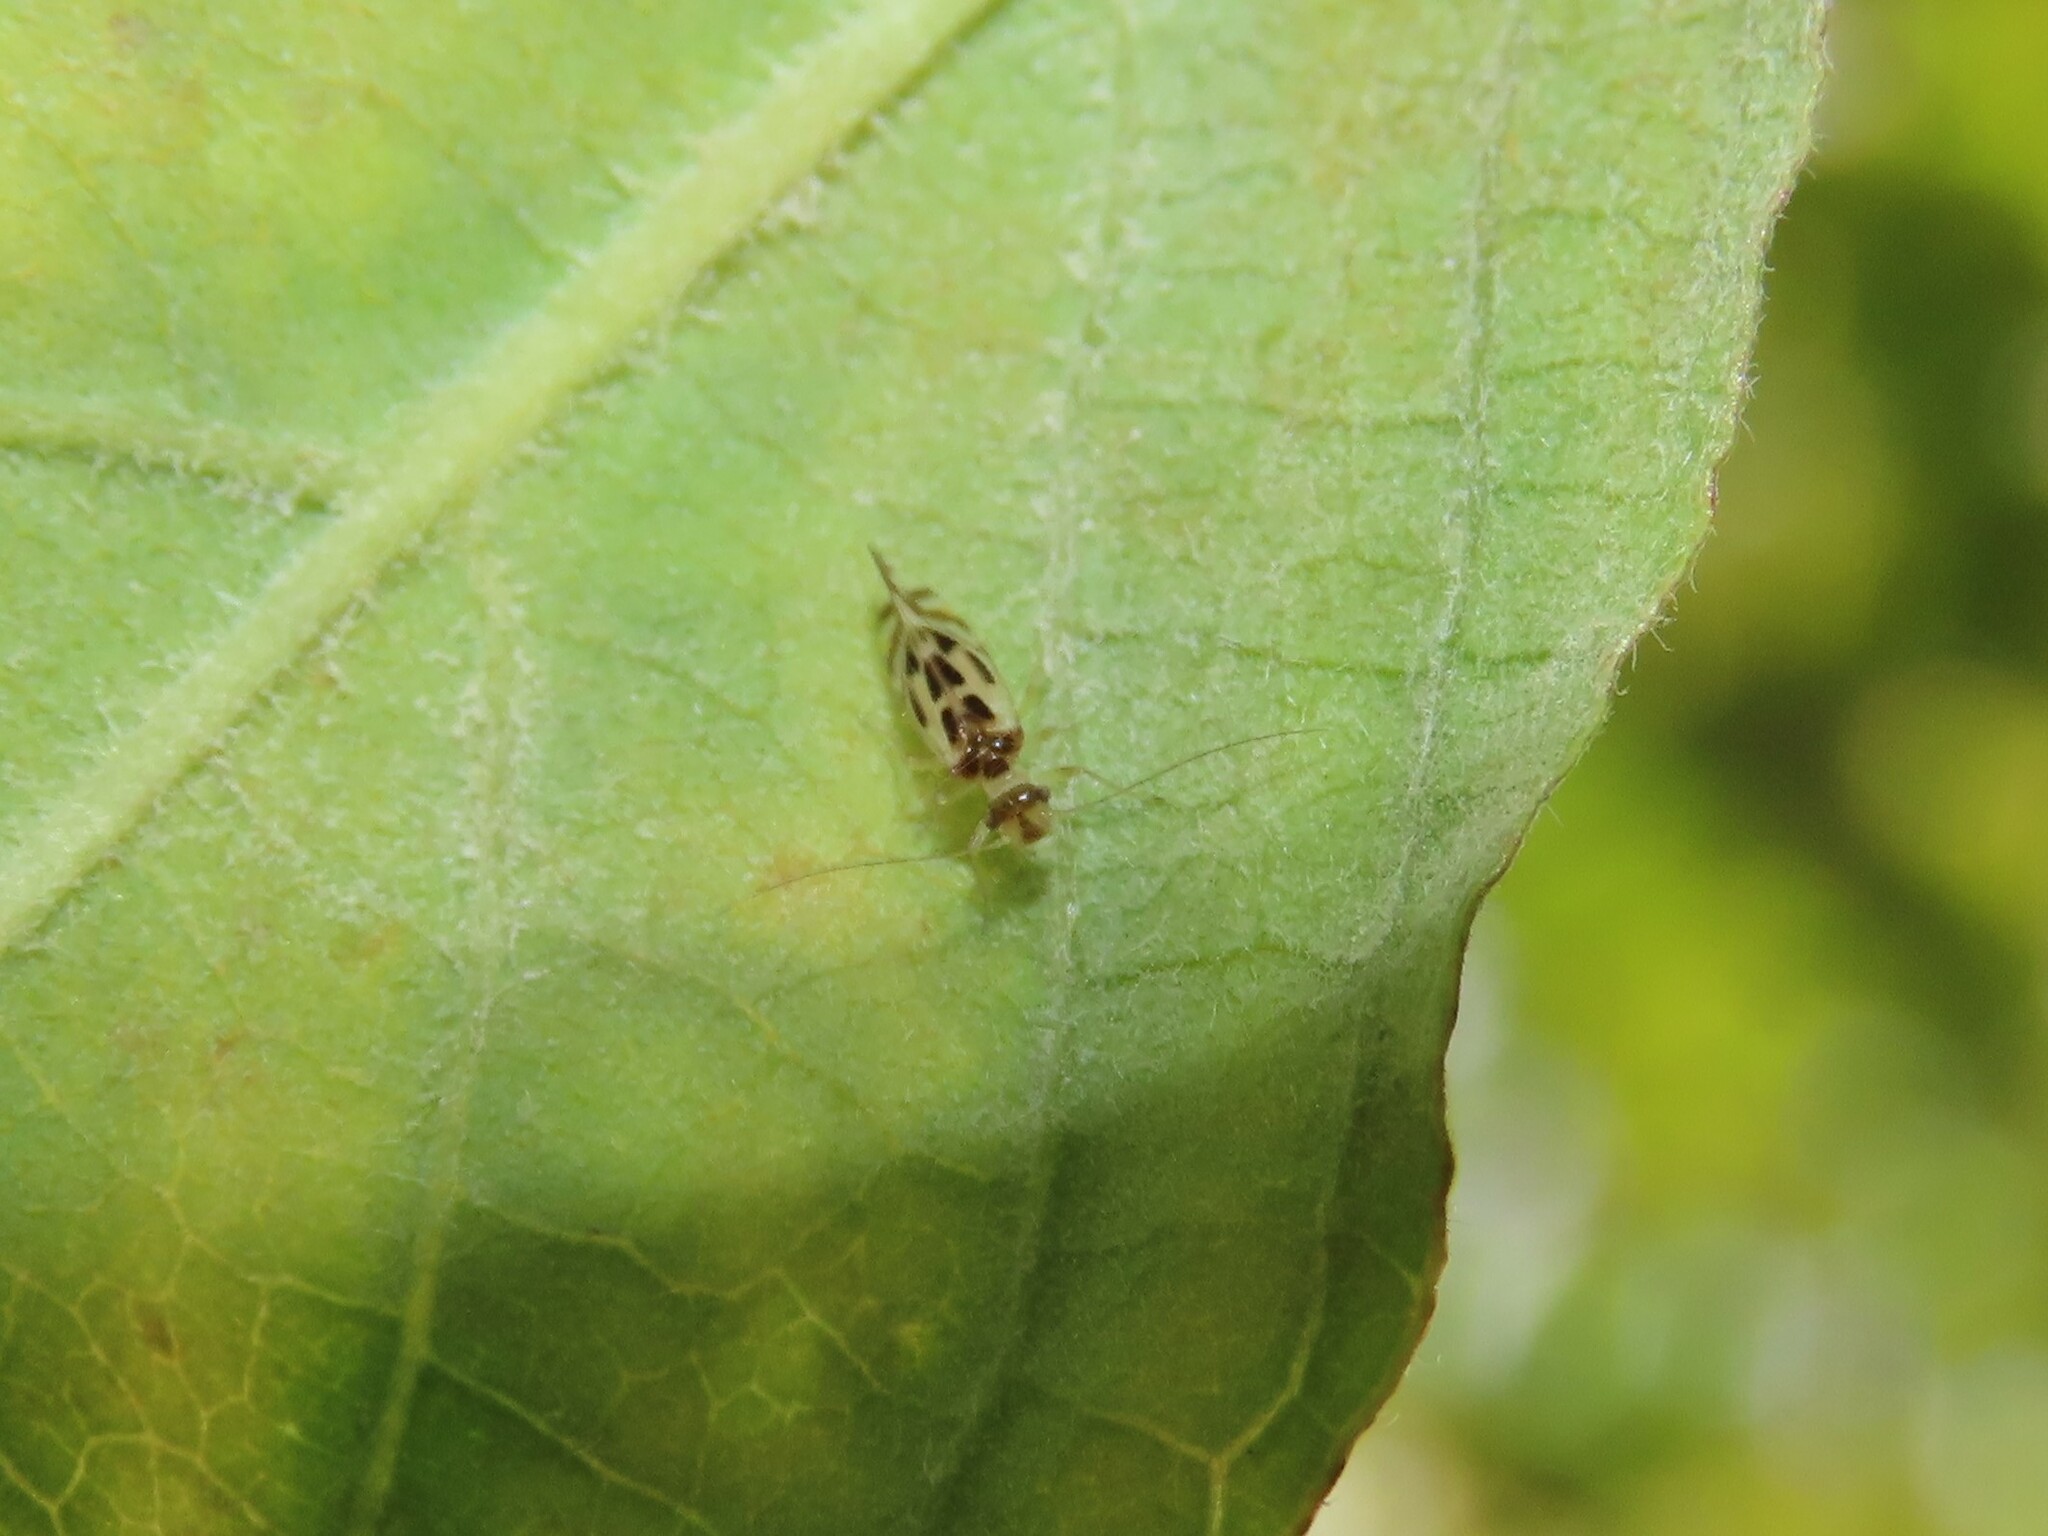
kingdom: Animalia
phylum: Arthropoda
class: Insecta
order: Psocodea
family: Stenopsocidae
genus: Graphopsocus
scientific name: Graphopsocus cruciatus
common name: Lizard bark louse
